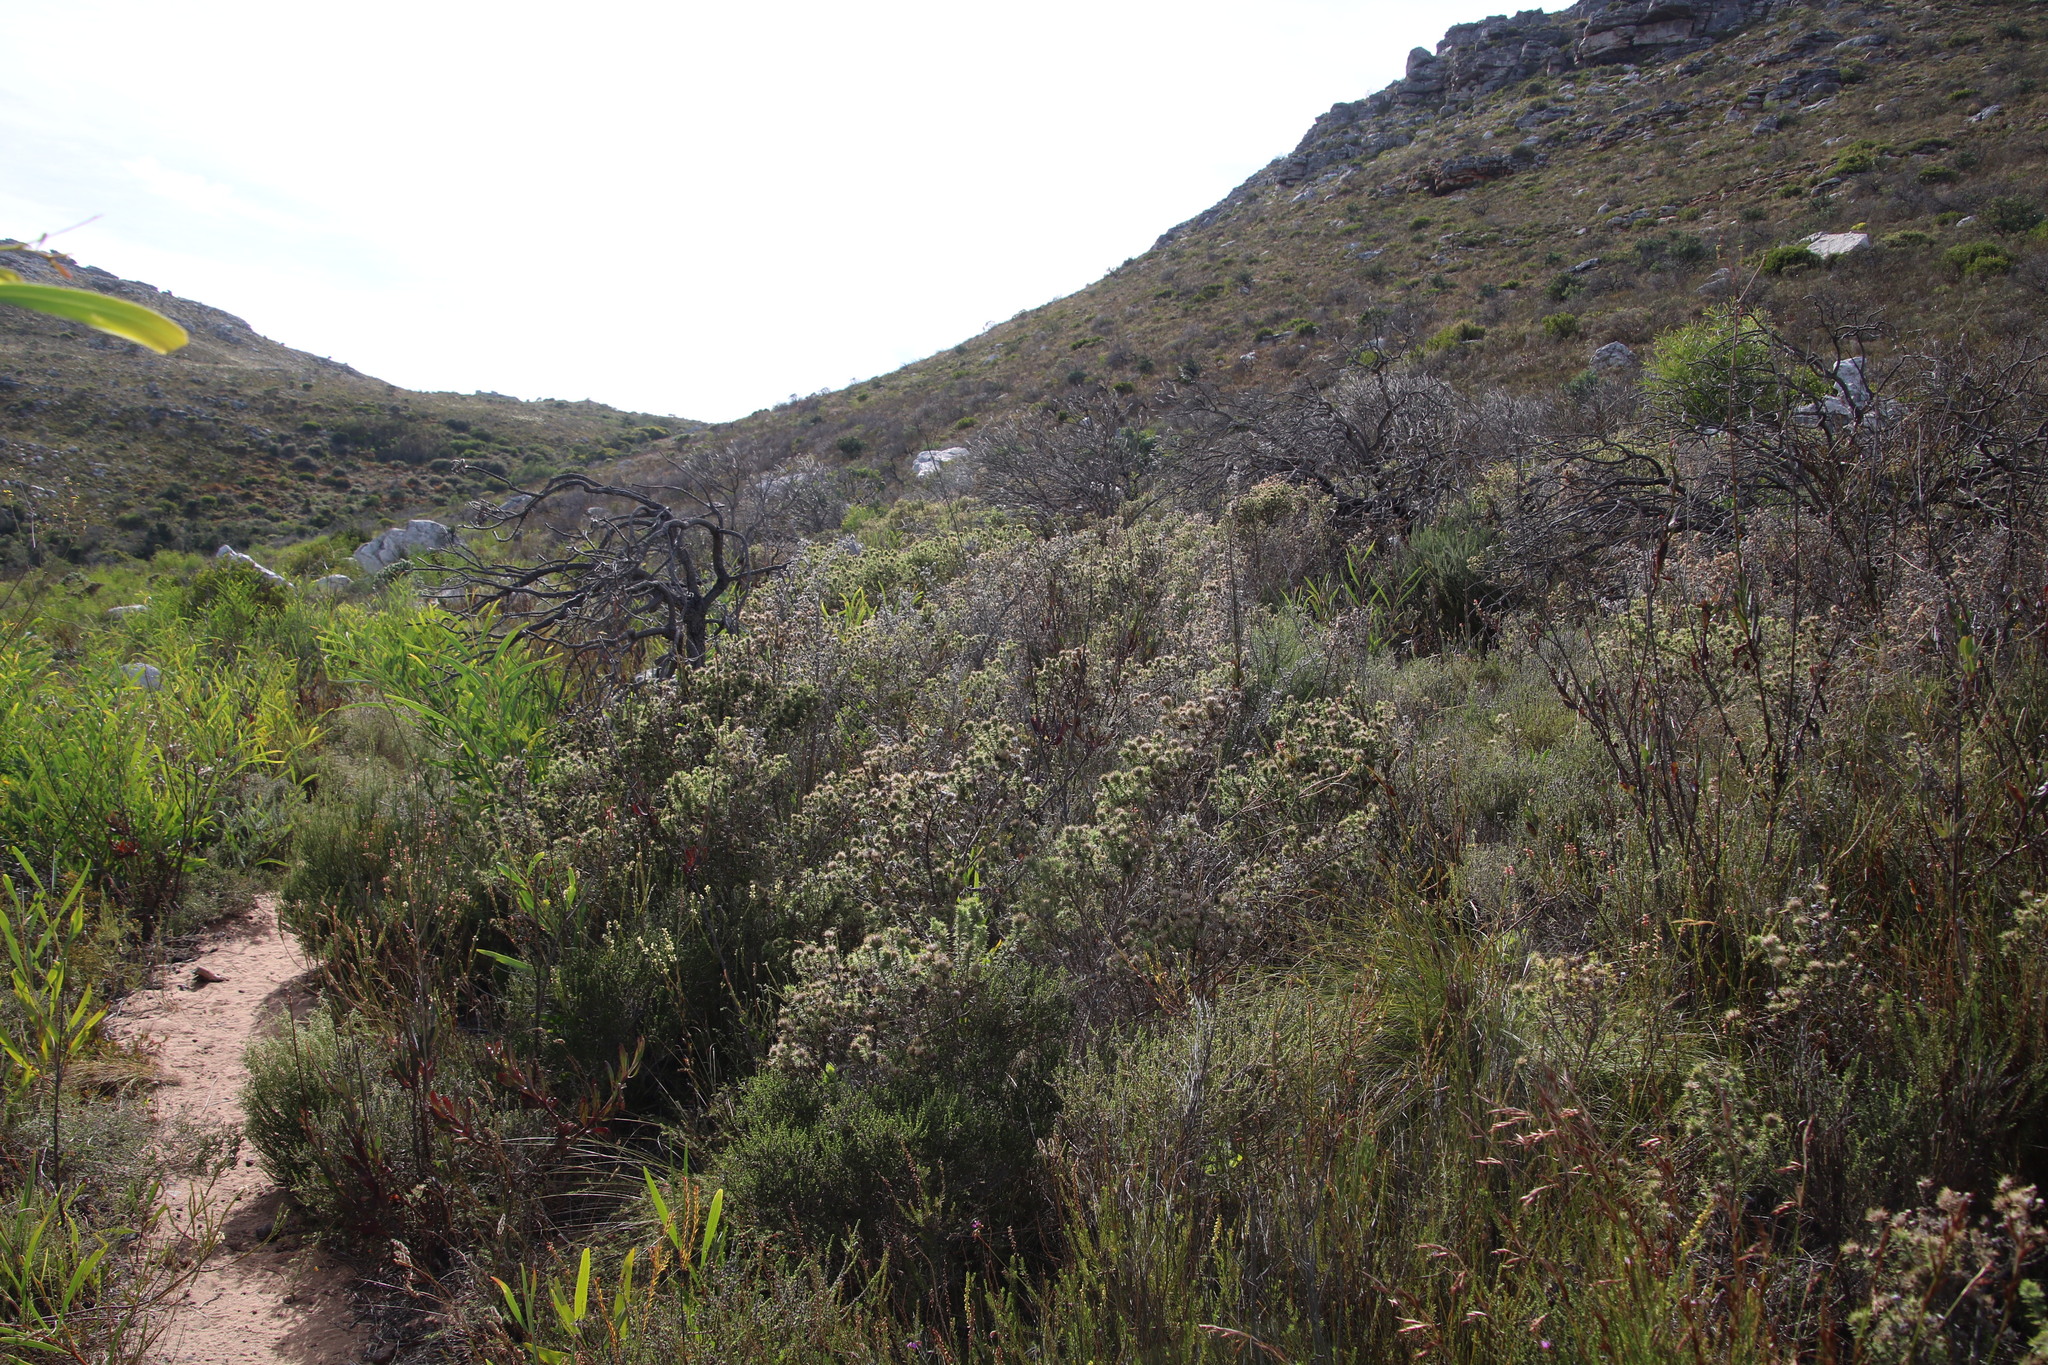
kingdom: Plantae
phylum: Tracheophyta
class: Magnoliopsida
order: Fabales
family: Fabaceae
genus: Aspalathus
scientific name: Aspalathus chenopoda
